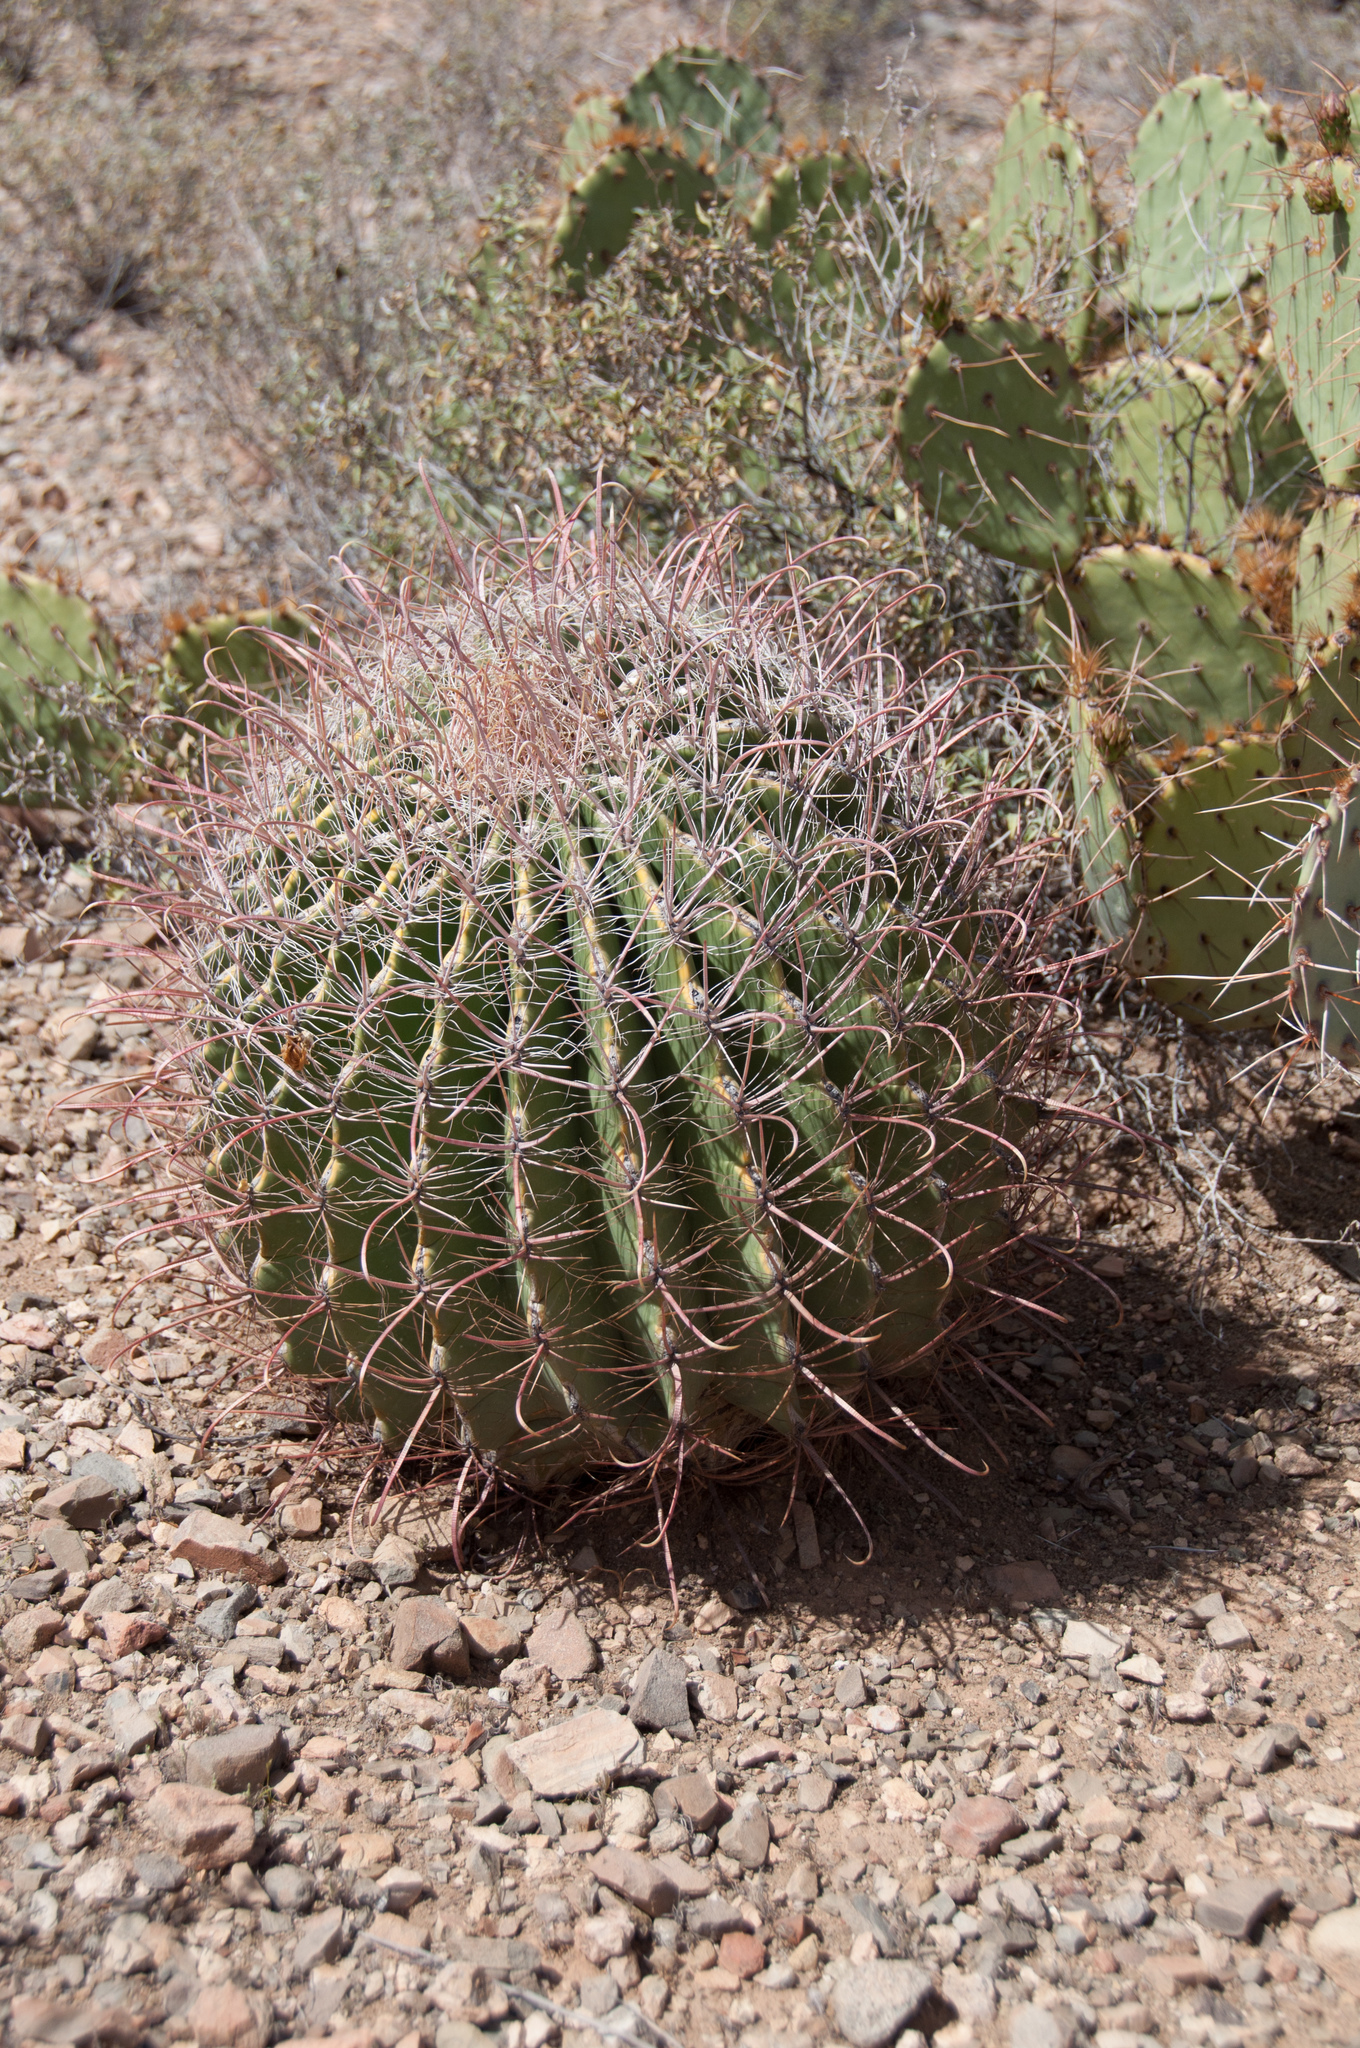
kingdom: Plantae
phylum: Tracheophyta
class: Magnoliopsida
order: Caryophyllales
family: Cactaceae
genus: Ferocactus
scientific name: Ferocactus wislizeni
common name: Candy barrel cactus
